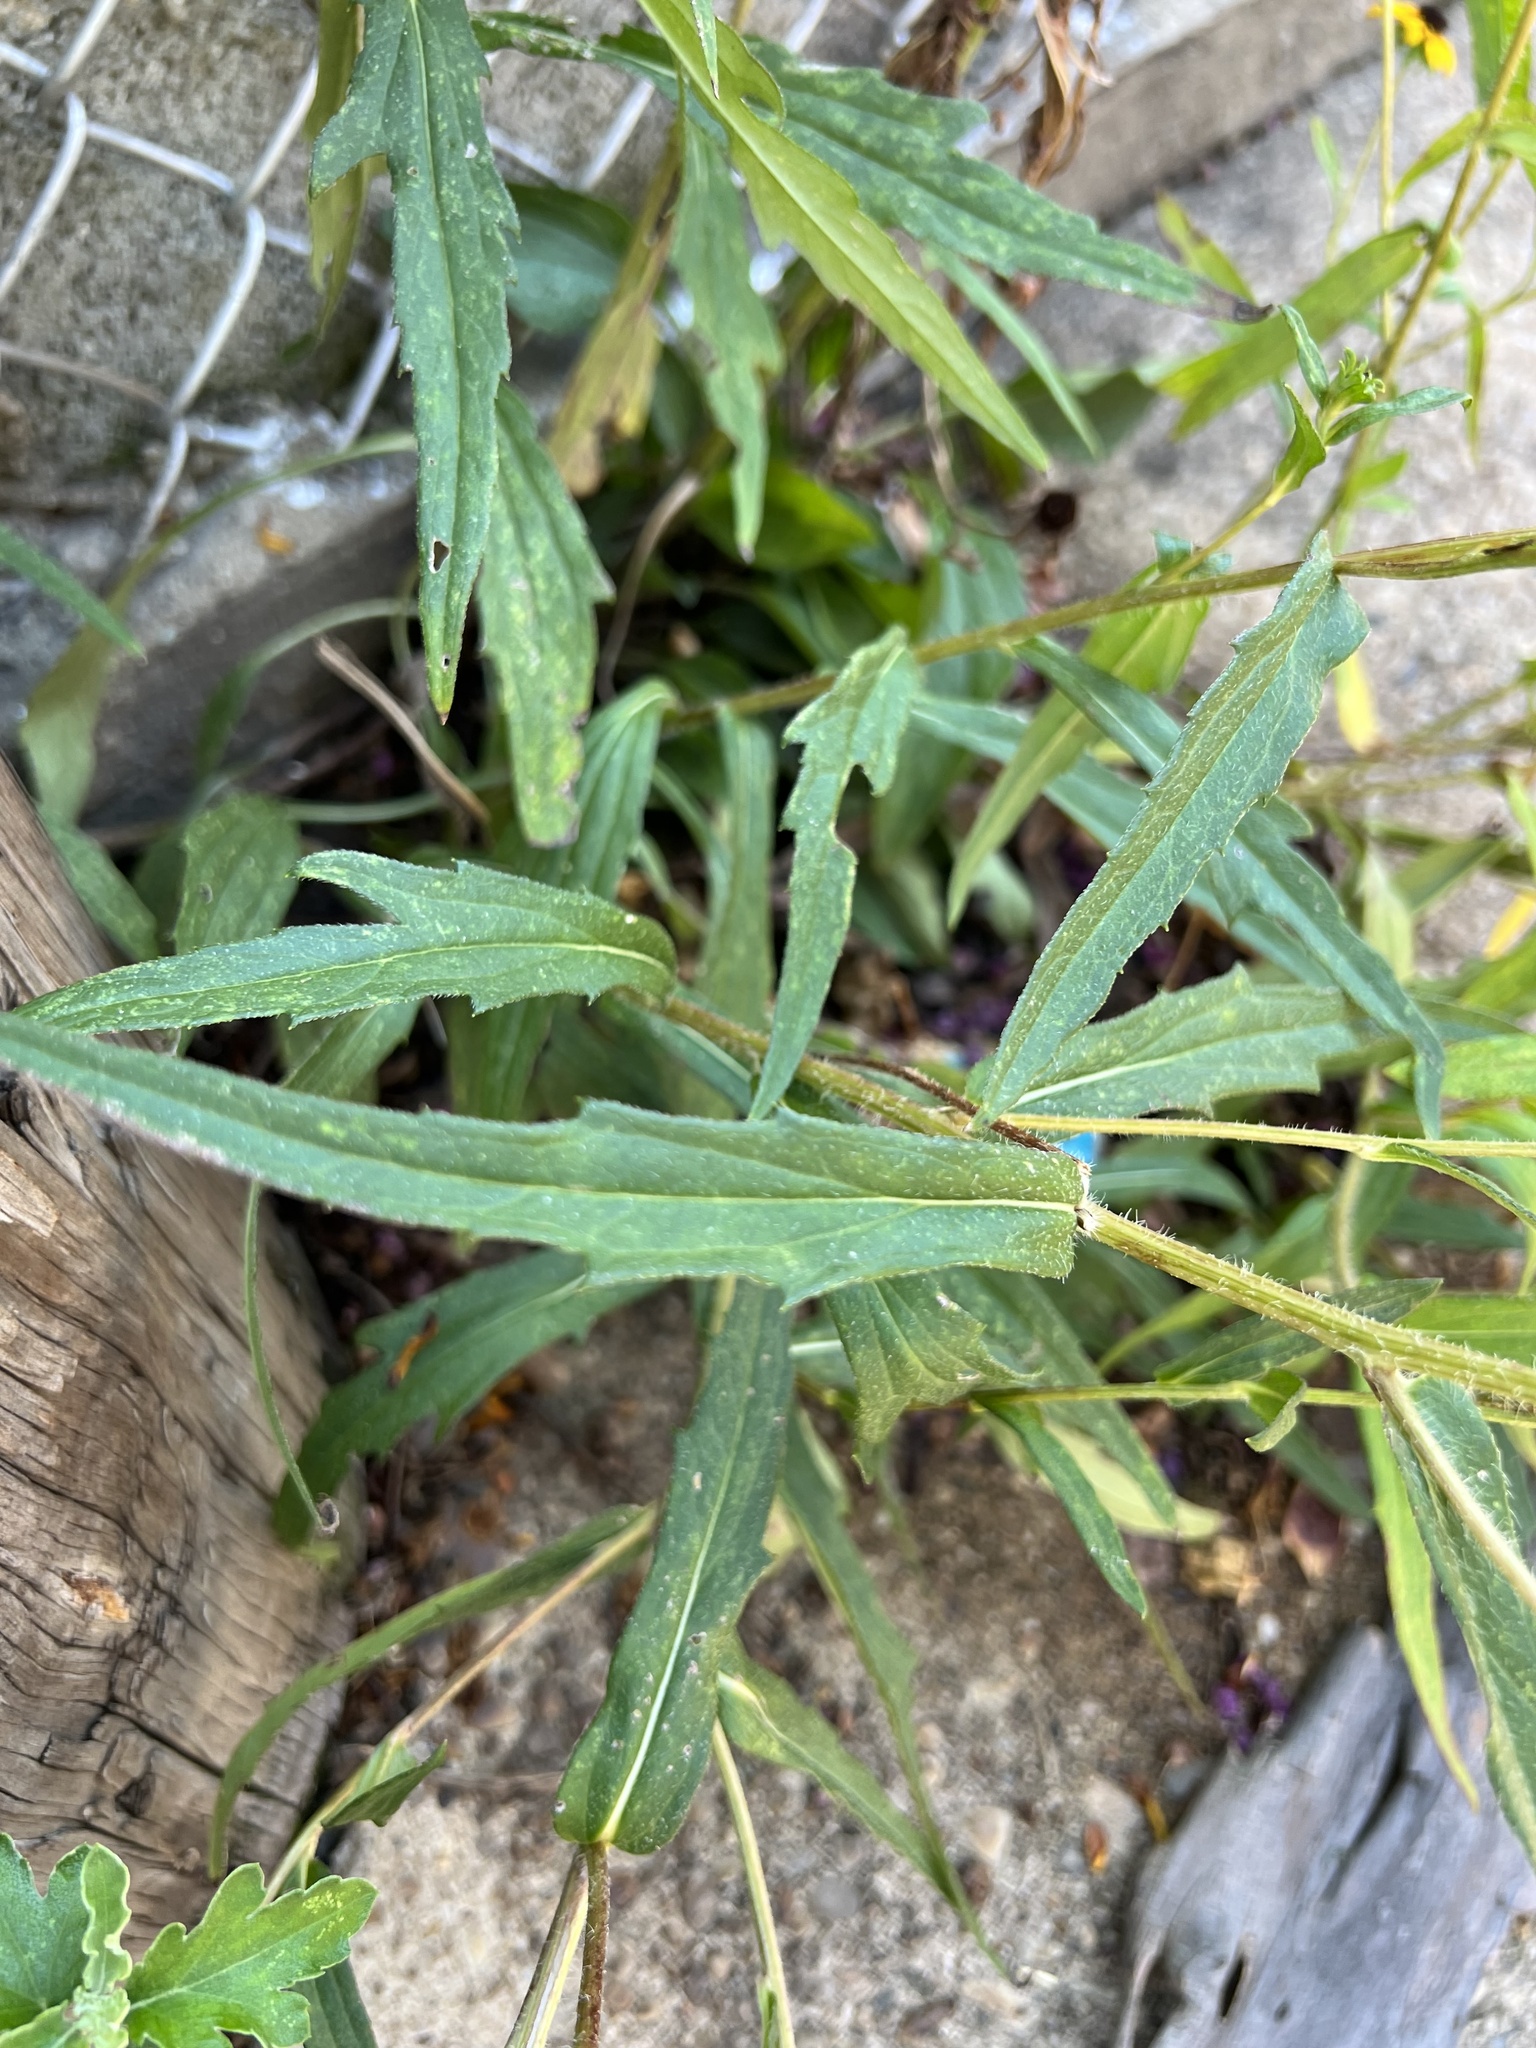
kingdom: Plantae
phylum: Tracheophyta
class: Magnoliopsida
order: Asterales
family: Asteraceae
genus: Rudbeckia
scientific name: Rudbeckia hirta
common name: Black-eyed-susan
